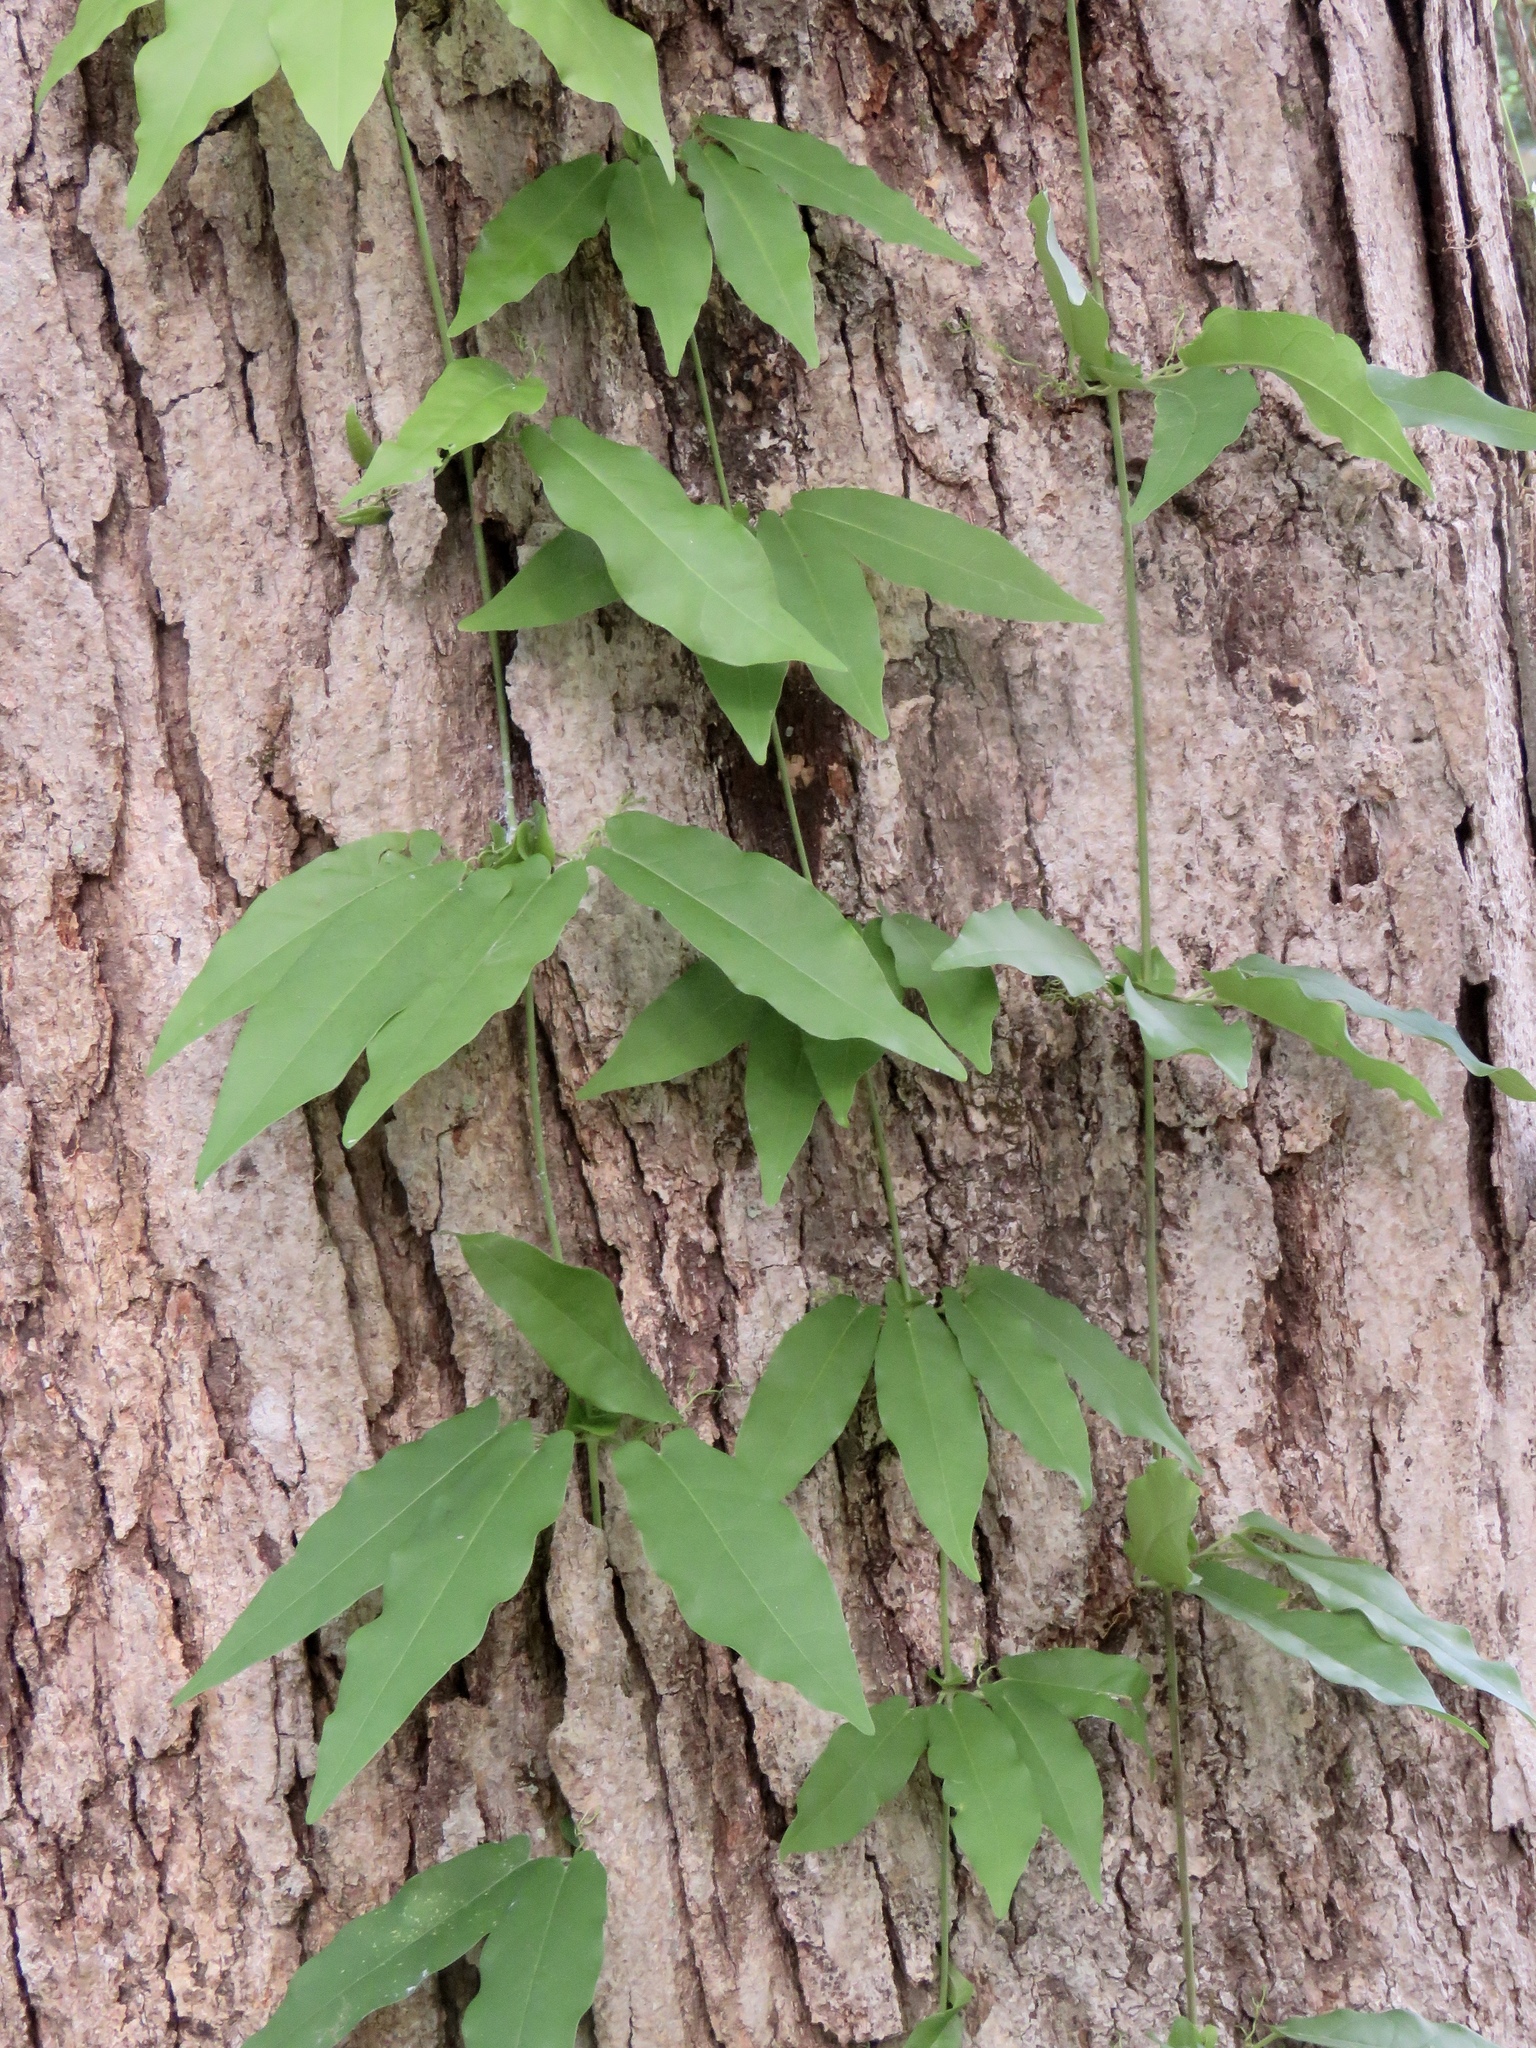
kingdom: Plantae
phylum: Tracheophyta
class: Magnoliopsida
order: Lamiales
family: Bignoniaceae
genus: Bignonia
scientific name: Bignonia capreolata
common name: Crossvine
